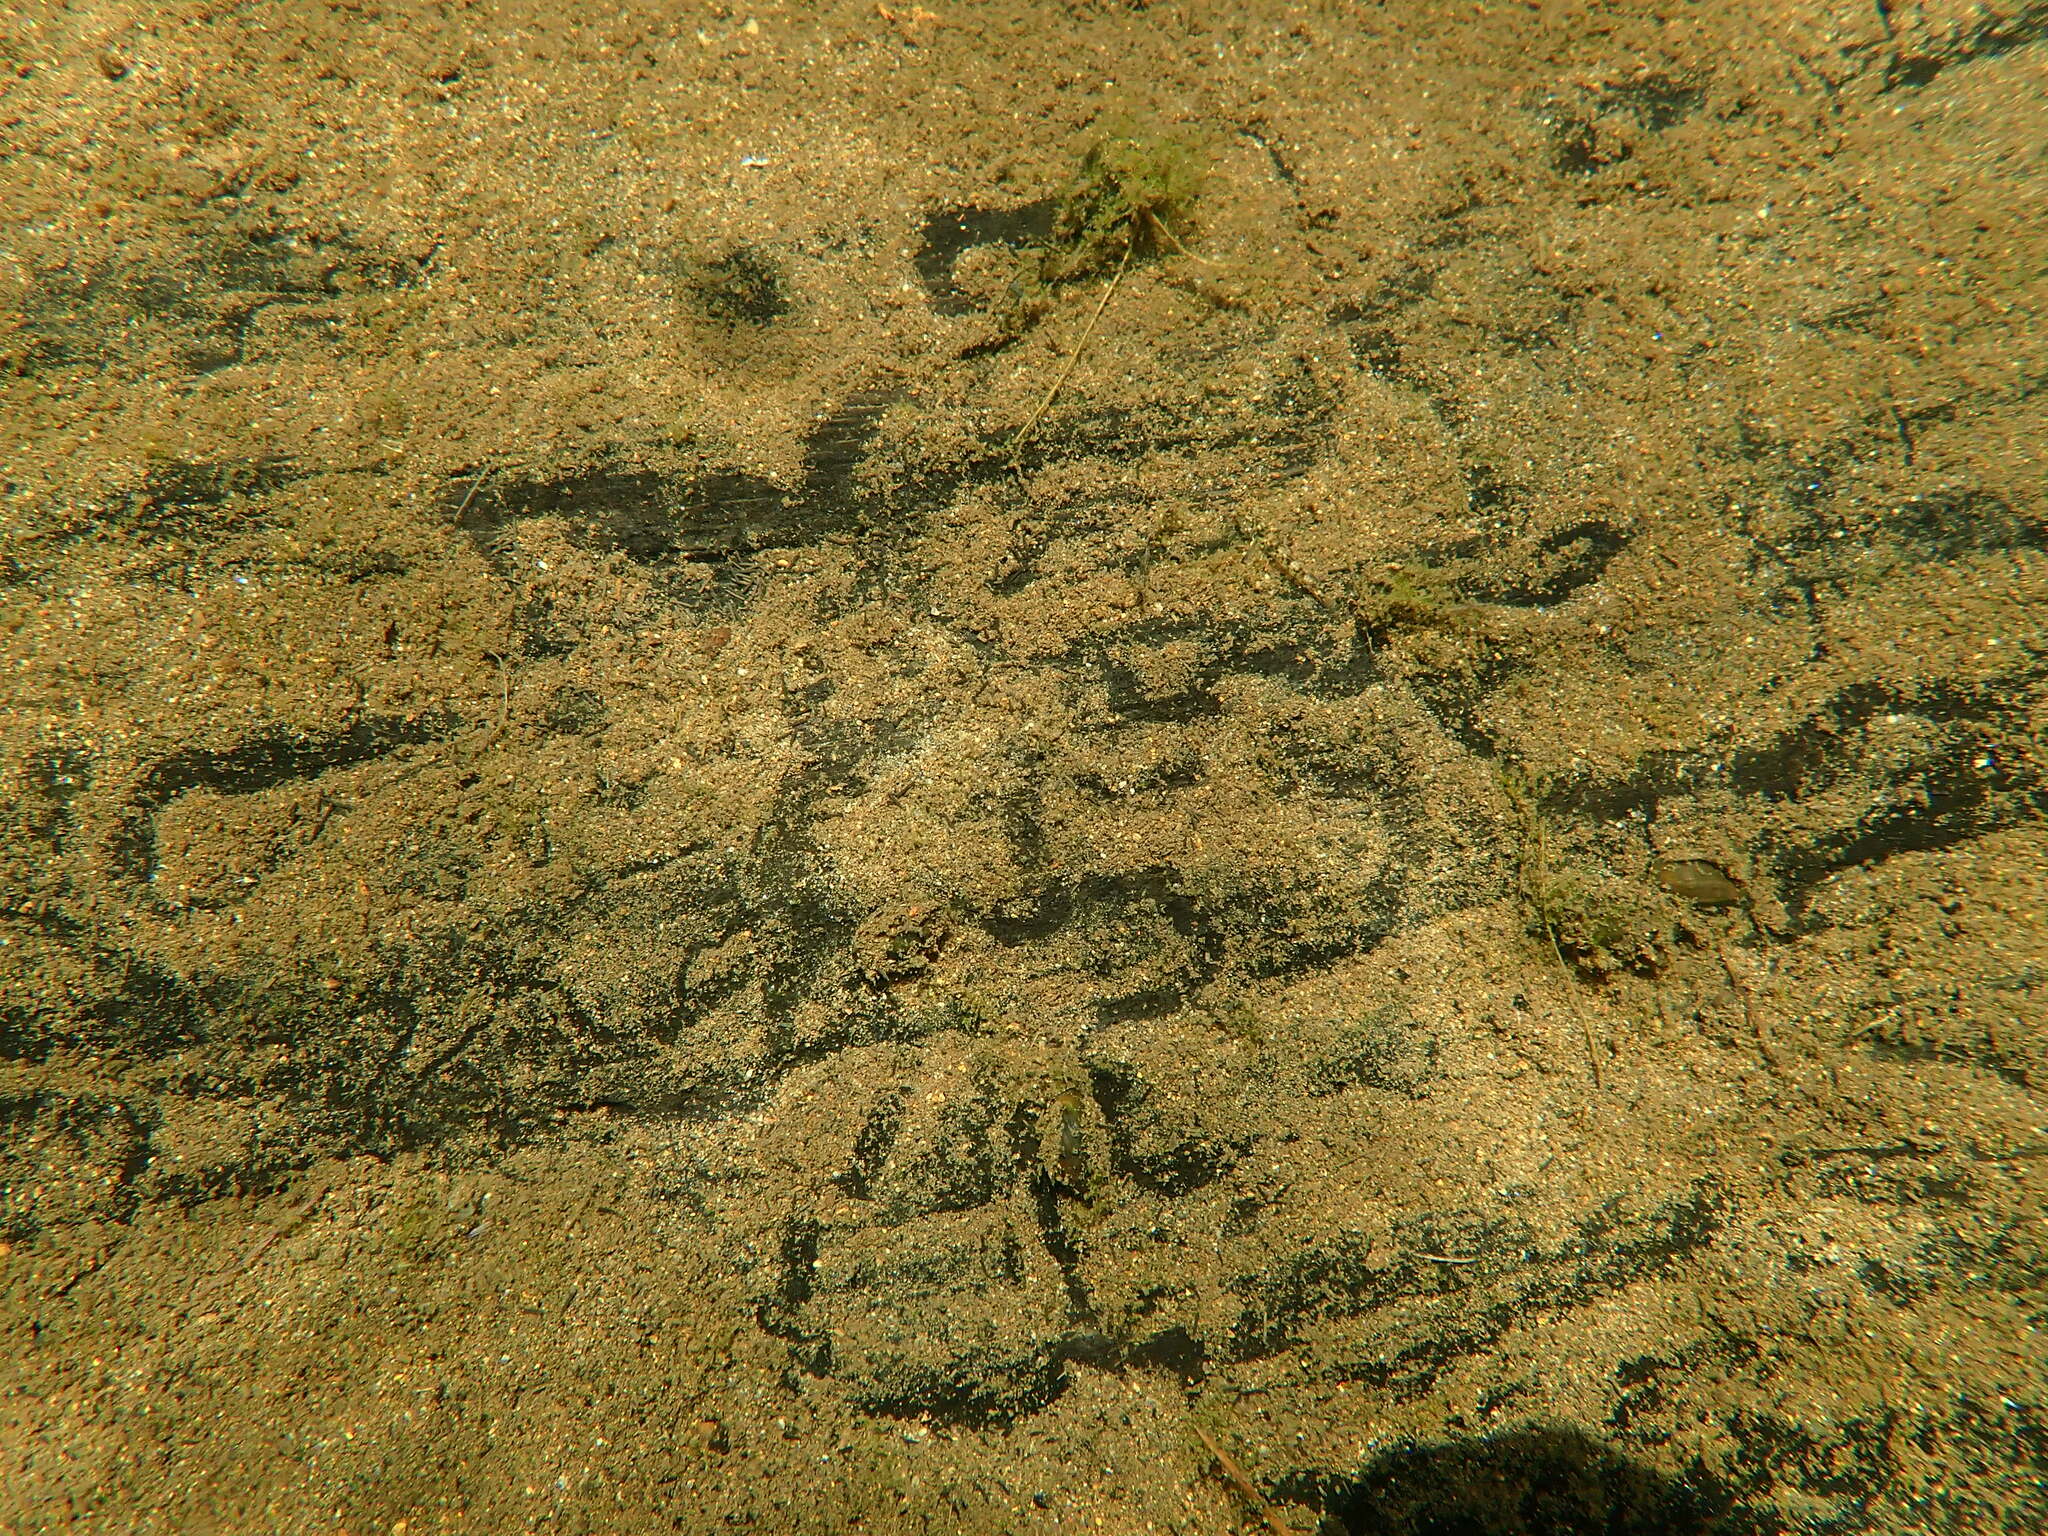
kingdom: Animalia
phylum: Mollusca
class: Gastropoda
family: Zemelanopsidae
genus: Zemelanopsis
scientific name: Zemelanopsis trifasciata
